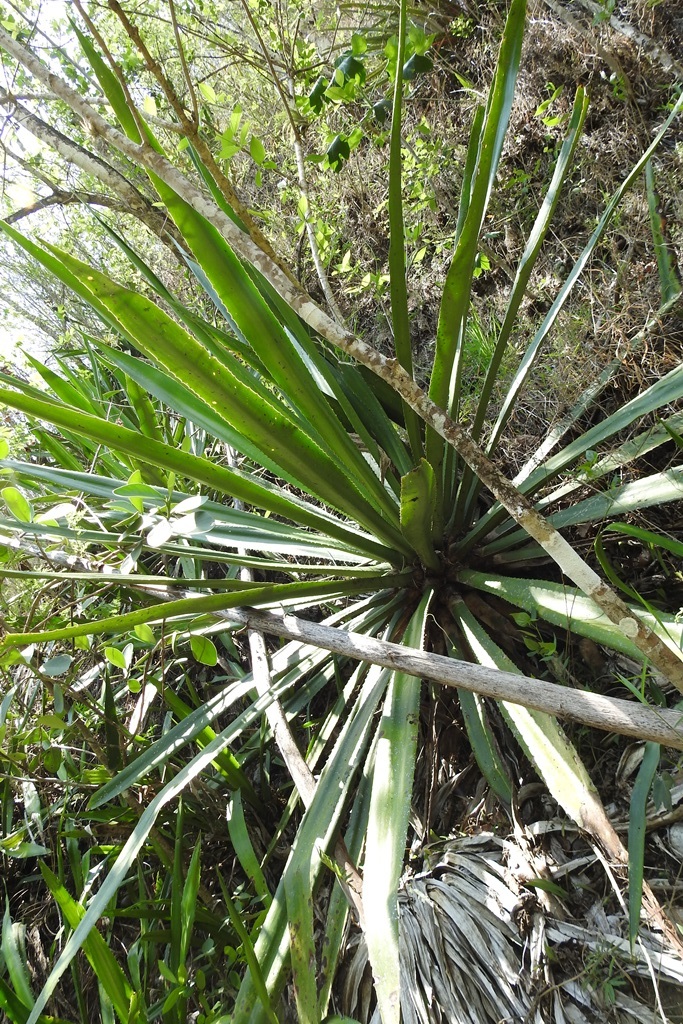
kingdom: Plantae
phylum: Tracheophyta
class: Liliopsida
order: Asparagales
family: Asparagaceae
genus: Furcraea
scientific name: Furcraea guatemalensis
